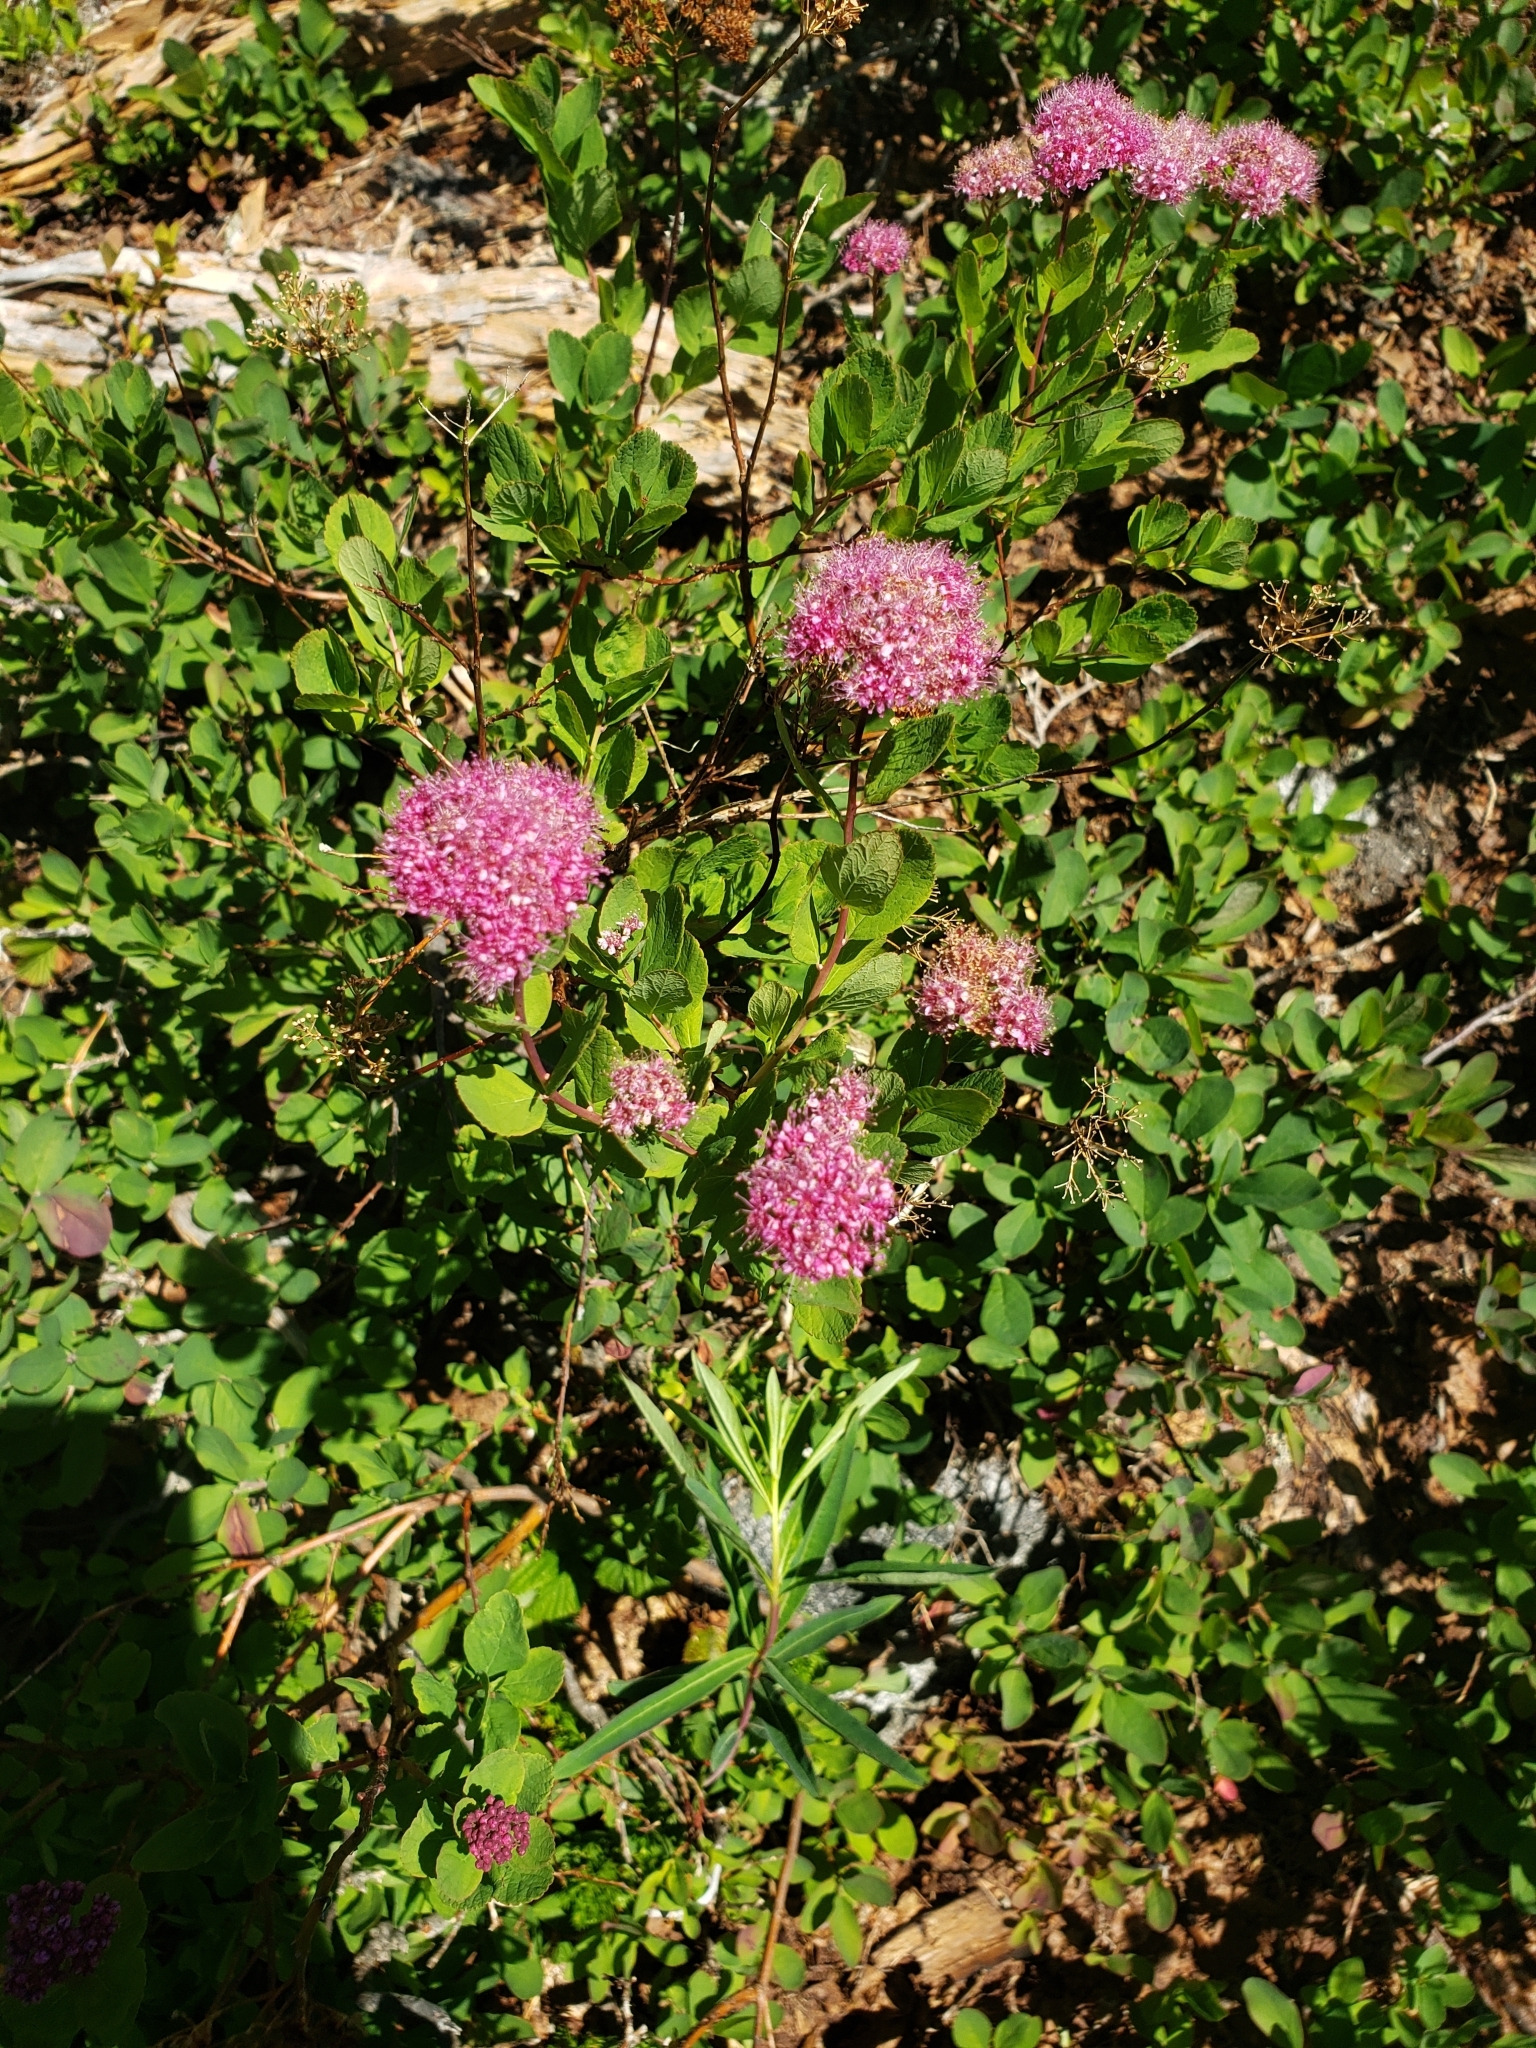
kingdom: Plantae
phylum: Tracheophyta
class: Magnoliopsida
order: Rosales
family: Rosaceae
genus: Spiraea
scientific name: Spiraea splendens
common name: Subalpine meadowsweet
